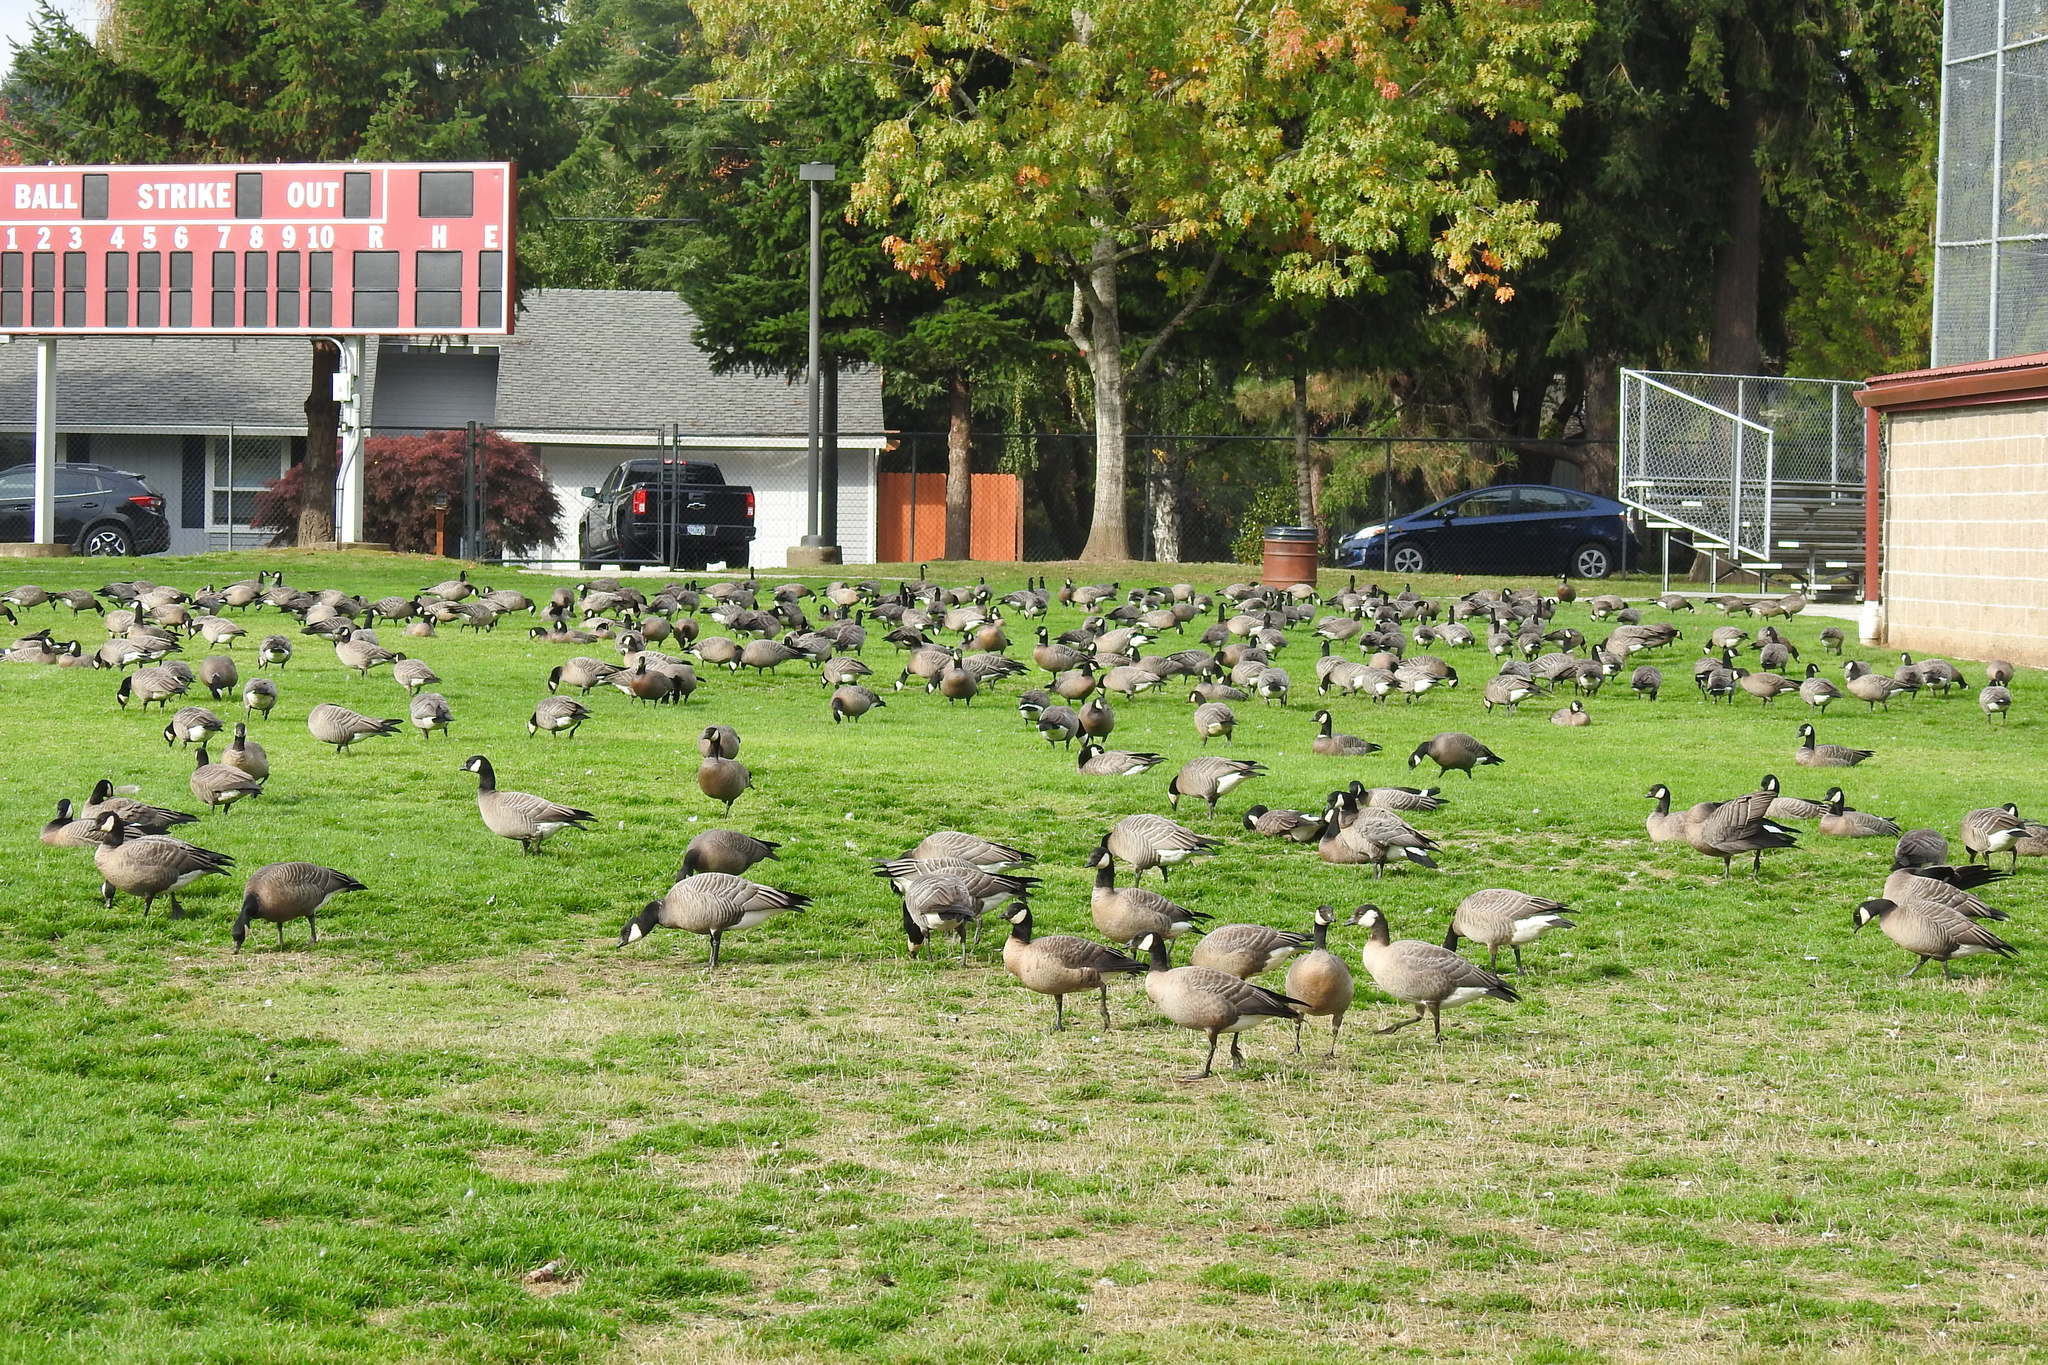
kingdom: Animalia
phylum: Chordata
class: Aves
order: Anseriformes
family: Anatidae
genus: Branta
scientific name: Branta hutchinsii
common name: Cackling goose
